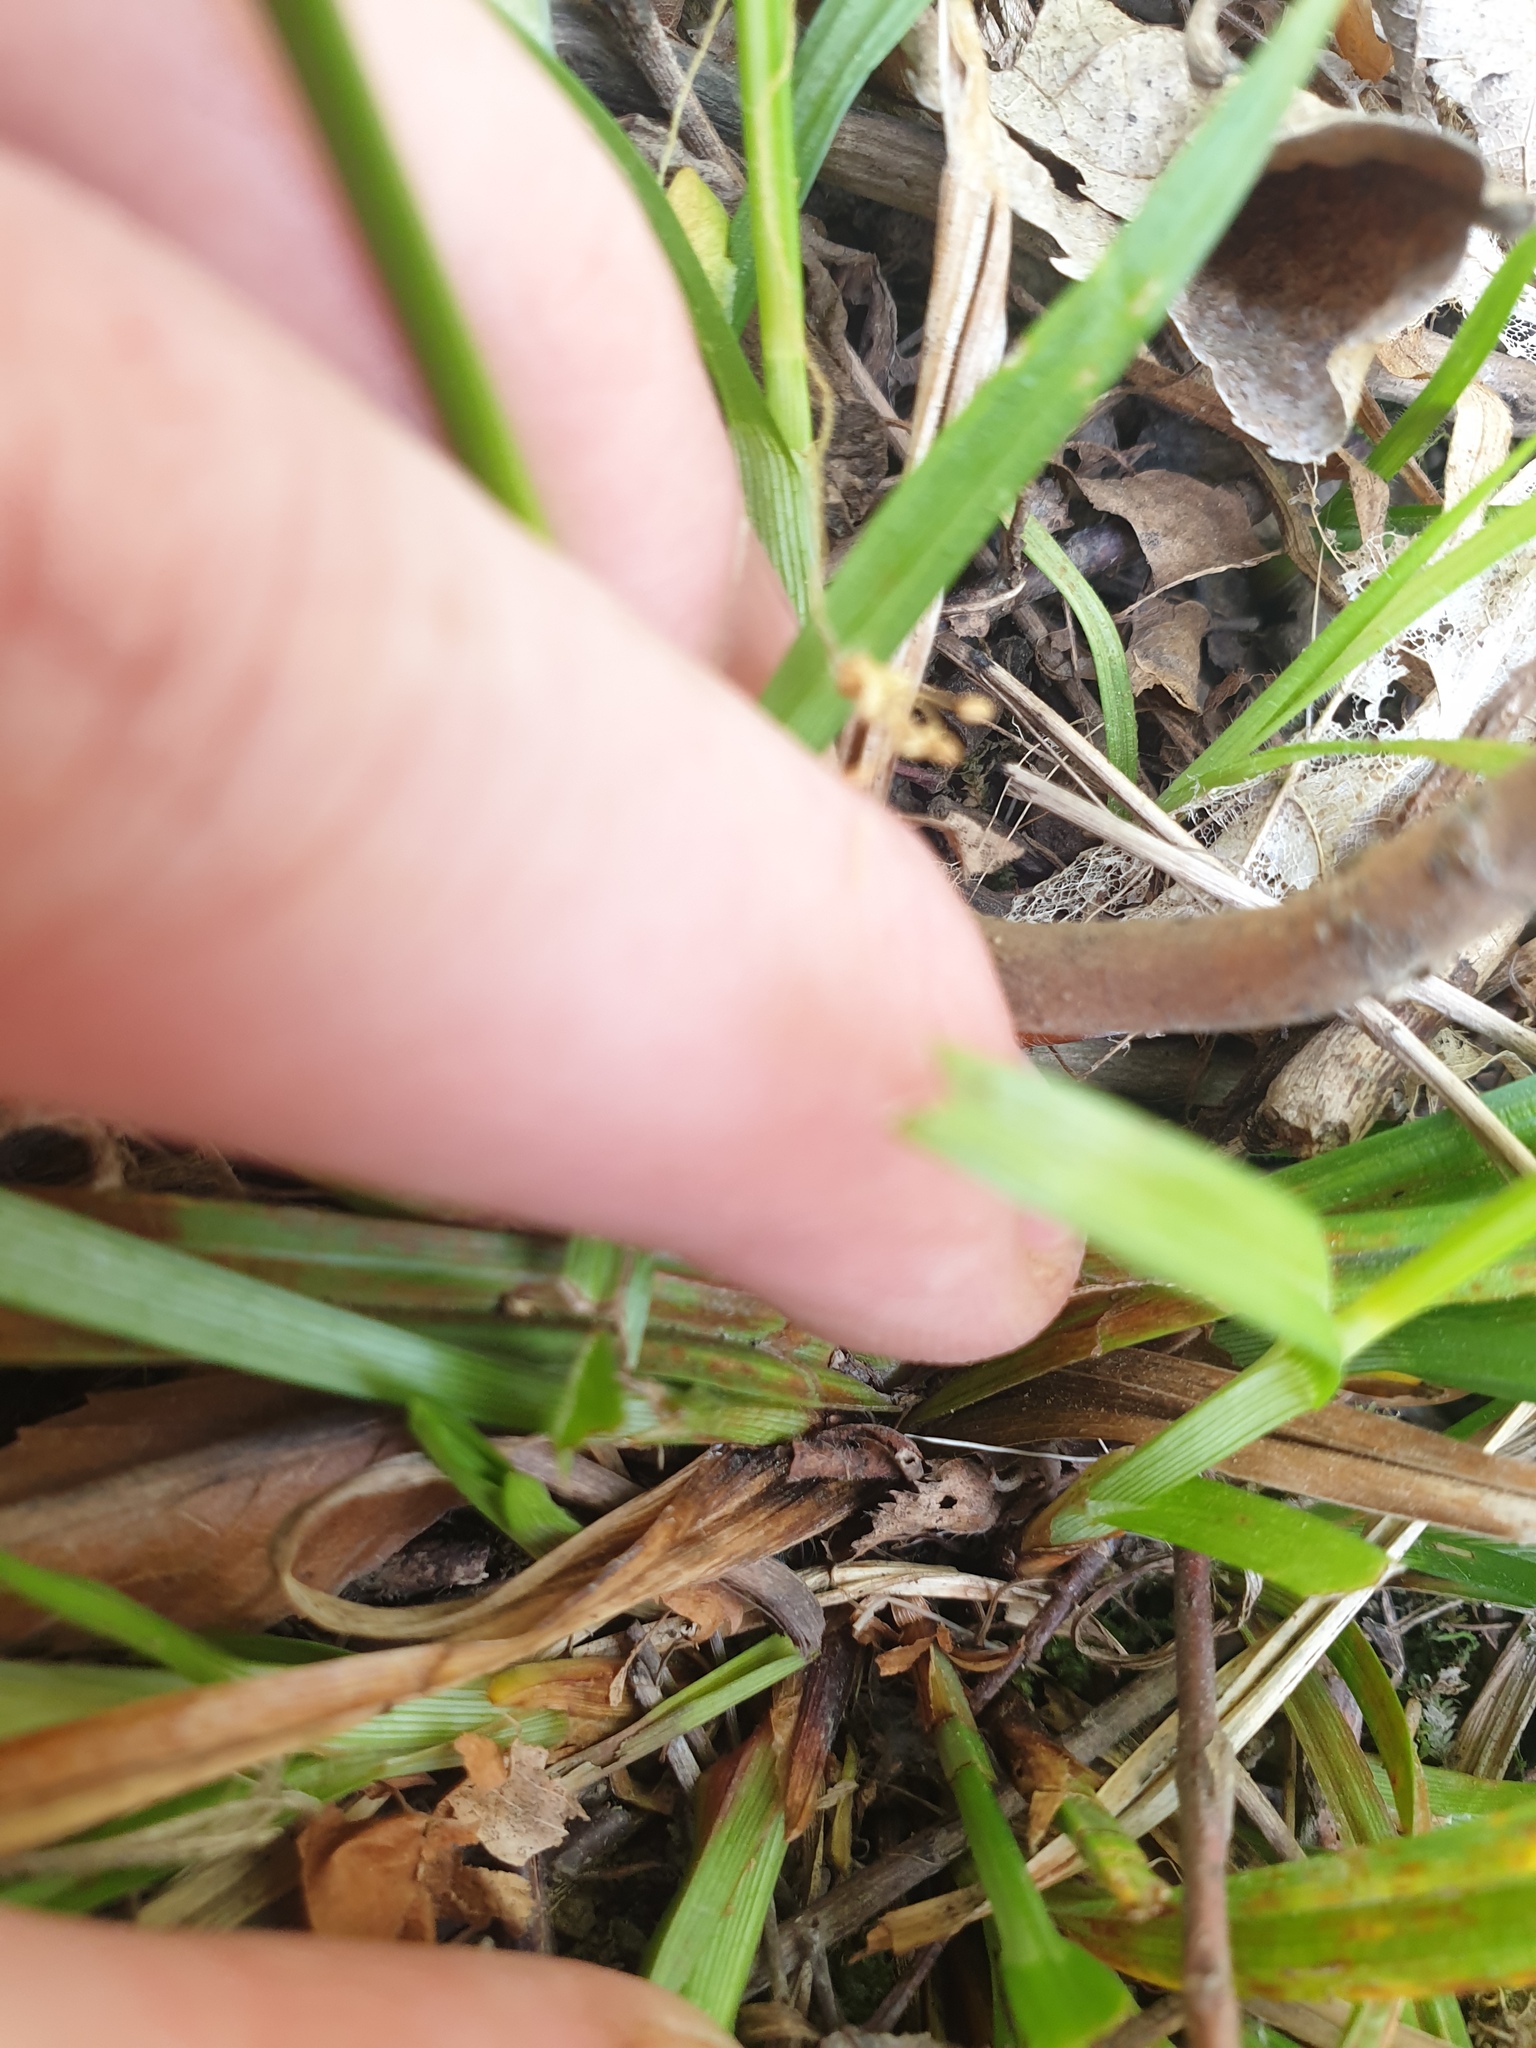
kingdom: Plantae
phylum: Tracheophyta
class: Liliopsida
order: Poales
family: Cyperaceae
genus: Carex
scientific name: Carex grisea
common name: Eastern narrow-leaved sedge
